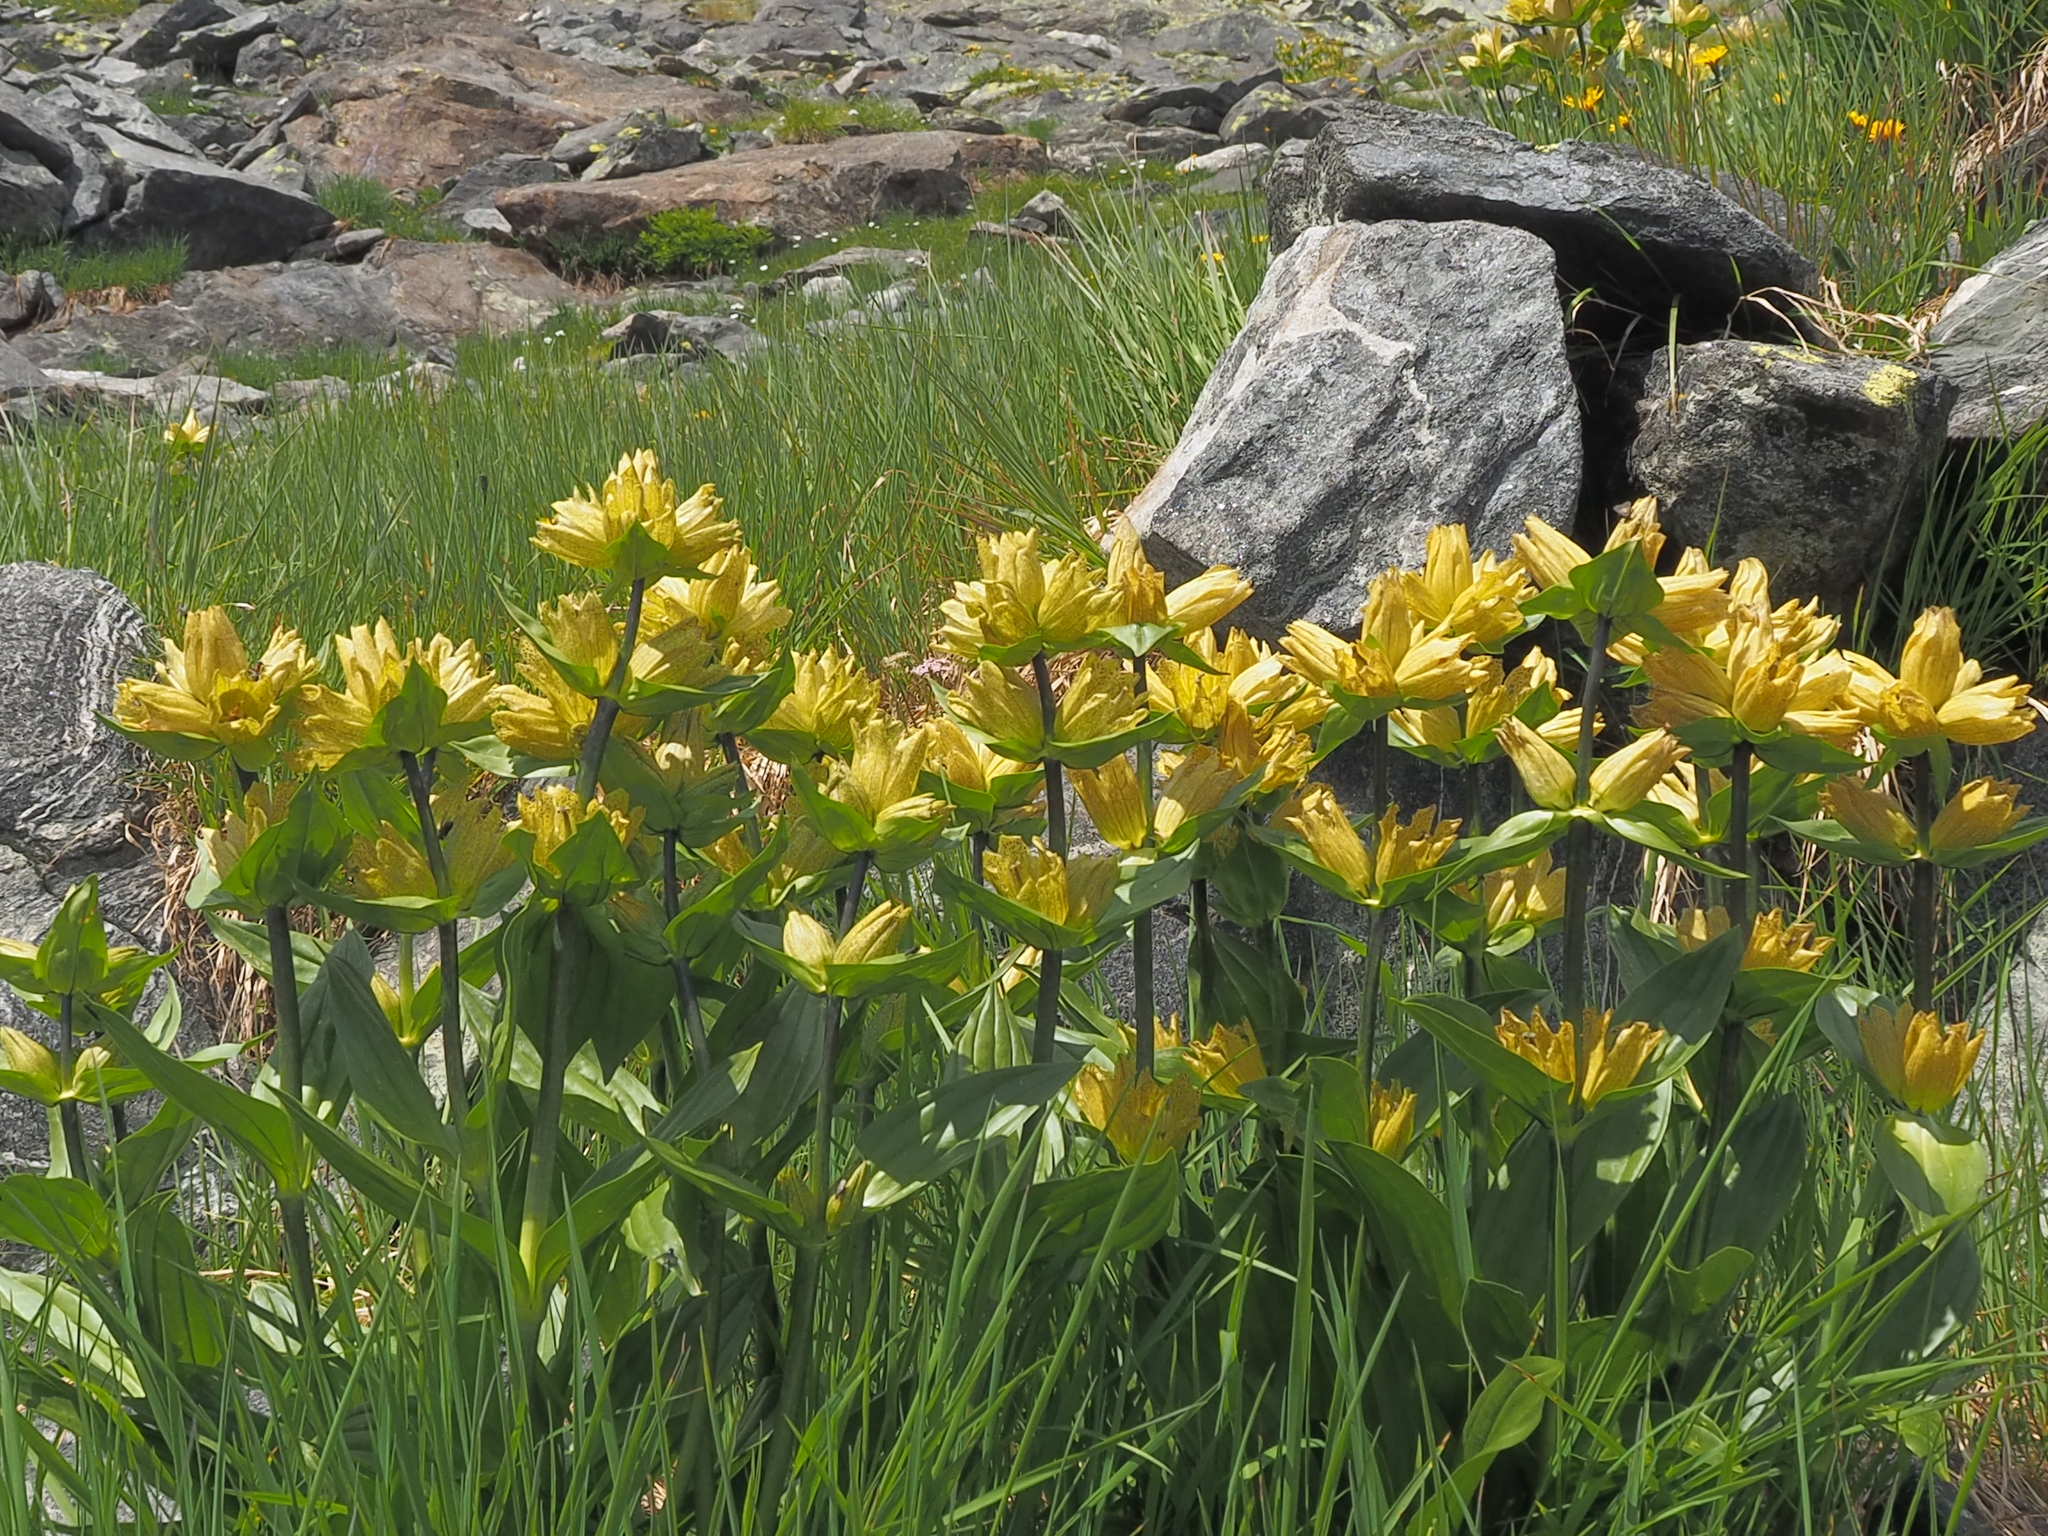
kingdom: Plantae
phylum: Tracheophyta
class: Magnoliopsida
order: Gentianales
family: Gentianaceae
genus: Gentiana
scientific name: Gentiana punctata
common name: Spotted gentian
